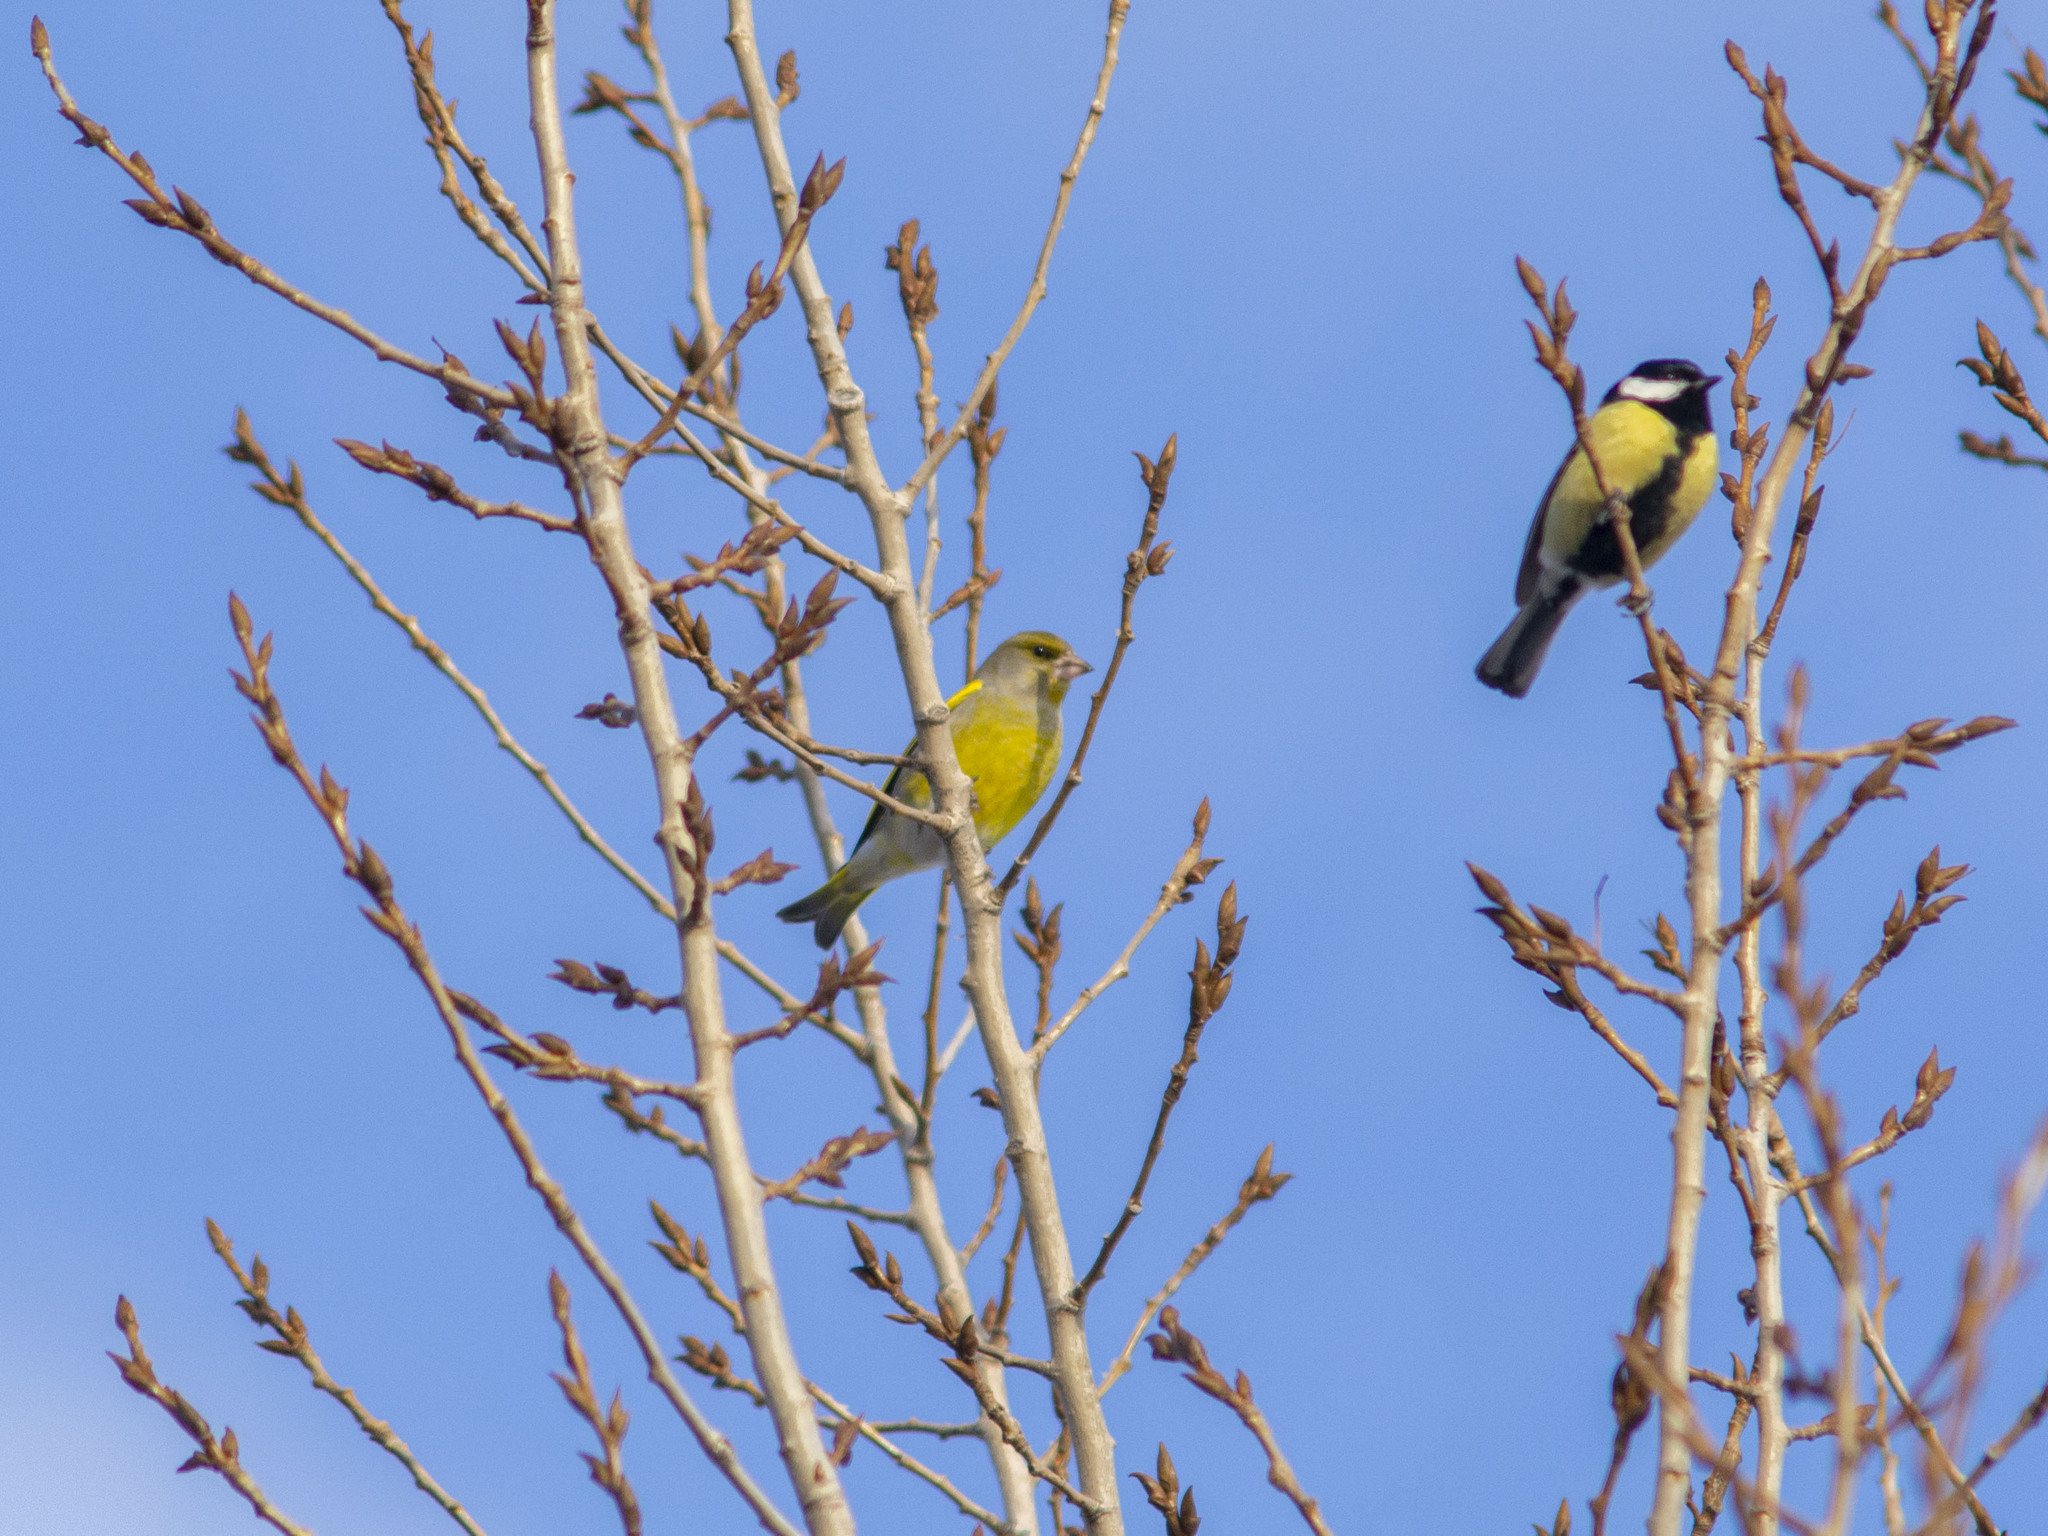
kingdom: Plantae
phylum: Tracheophyta
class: Liliopsida
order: Poales
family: Poaceae
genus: Chloris
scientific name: Chloris chloris
